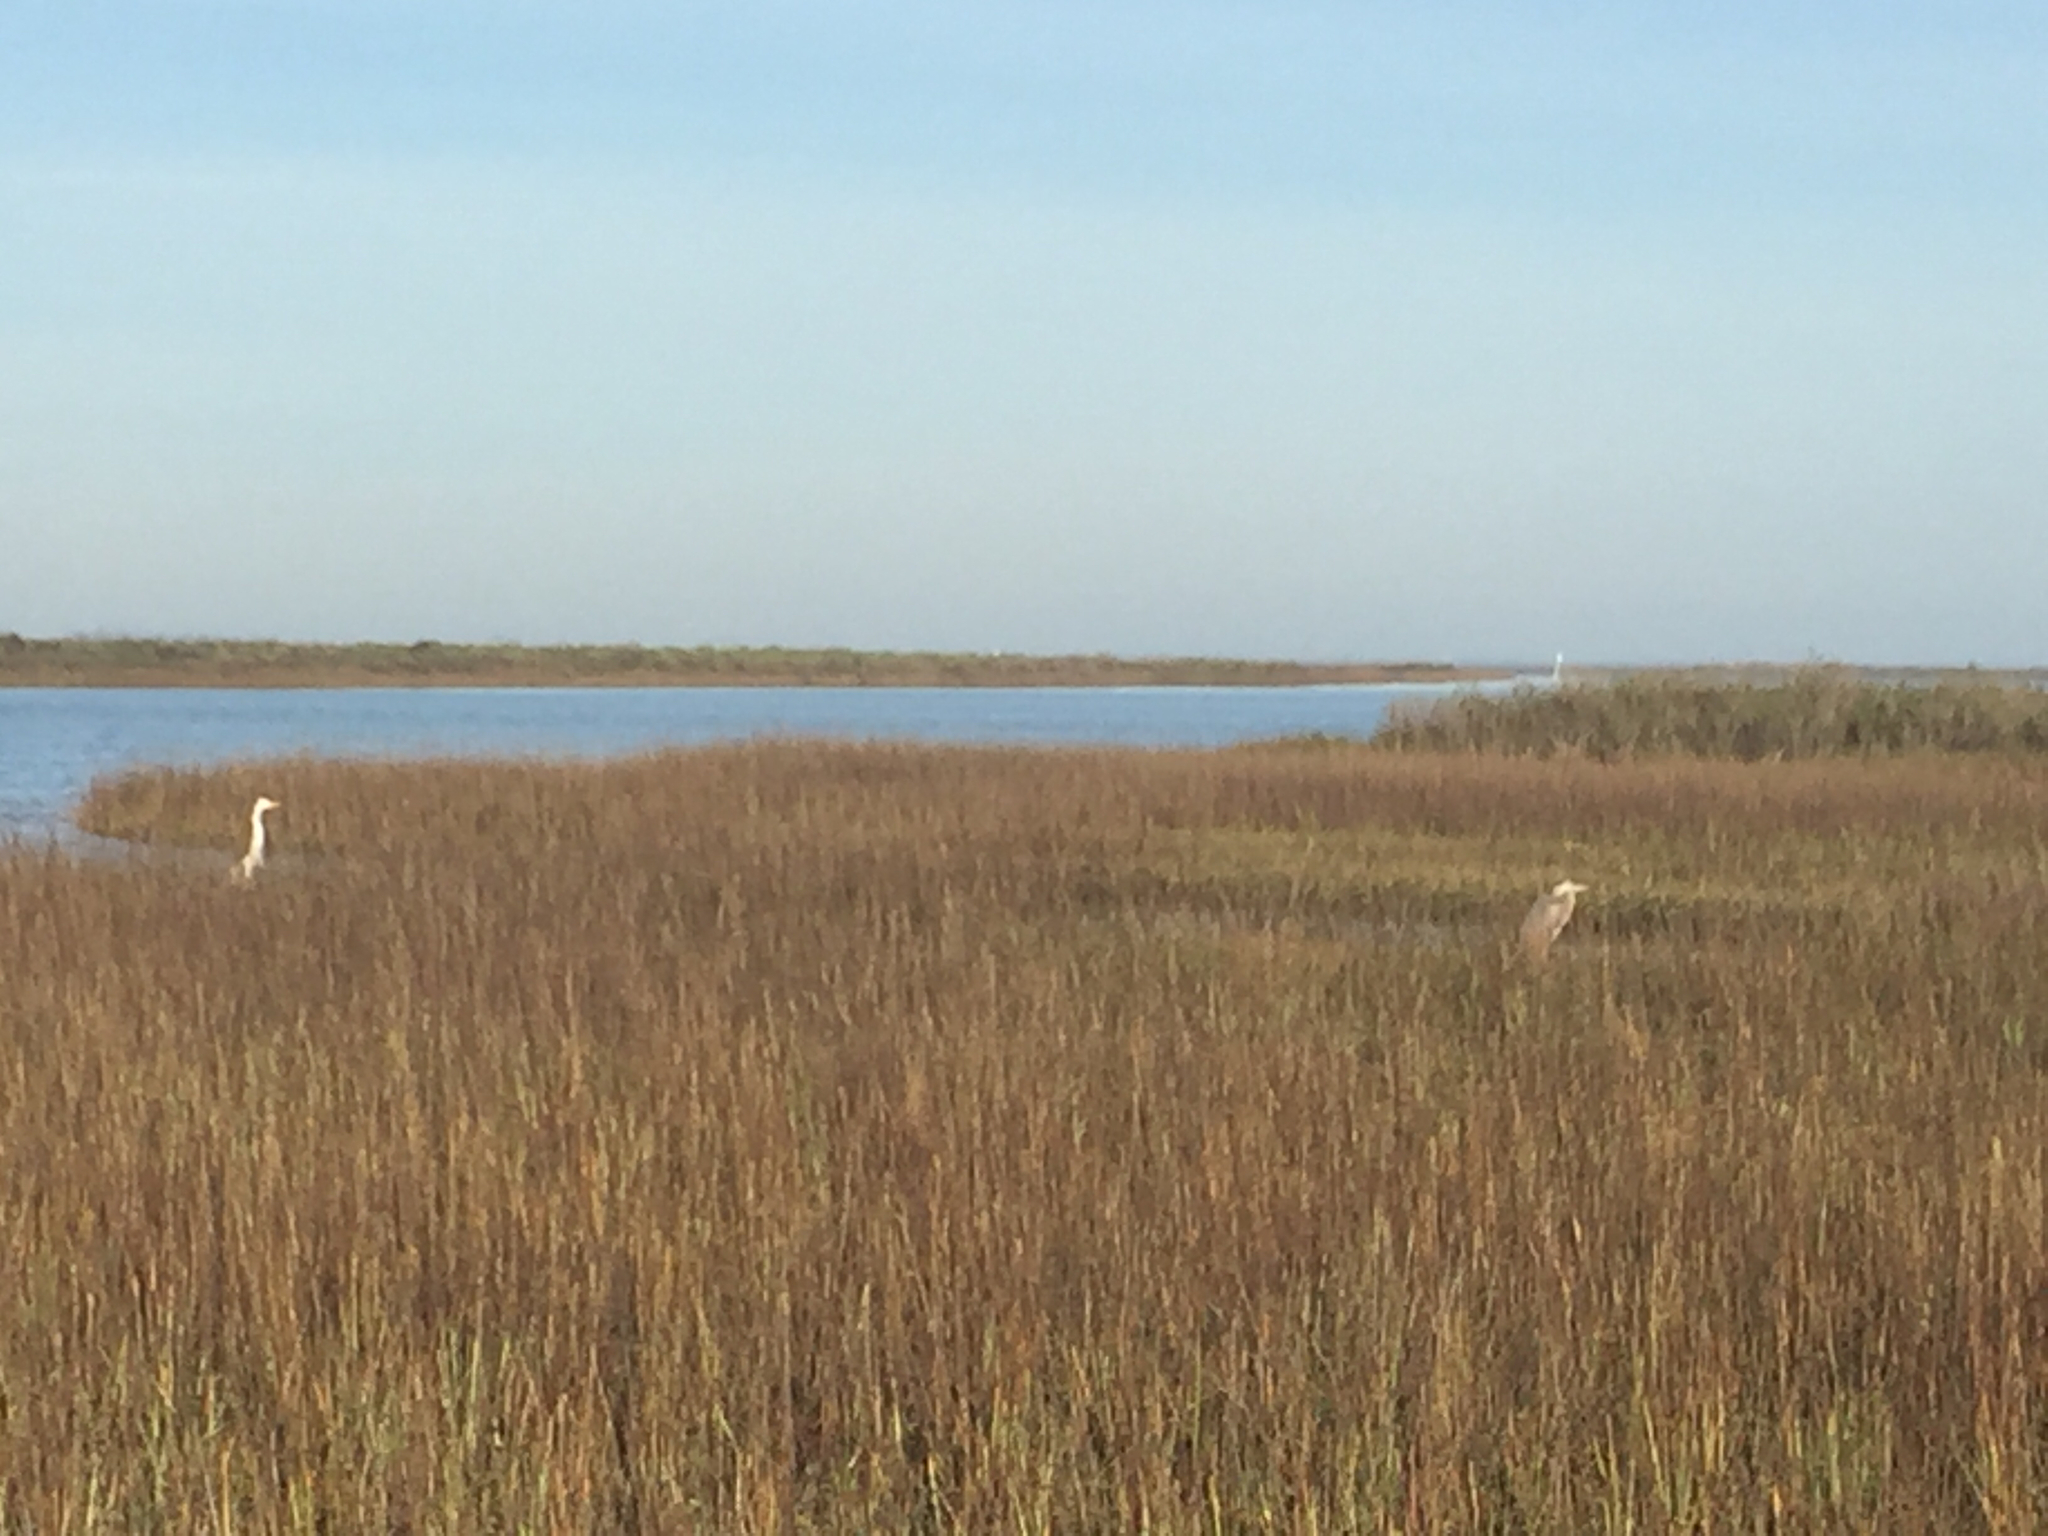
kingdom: Animalia
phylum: Chordata
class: Aves
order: Pelecaniformes
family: Ardeidae
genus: Ardea
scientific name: Ardea alba
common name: Great egret
